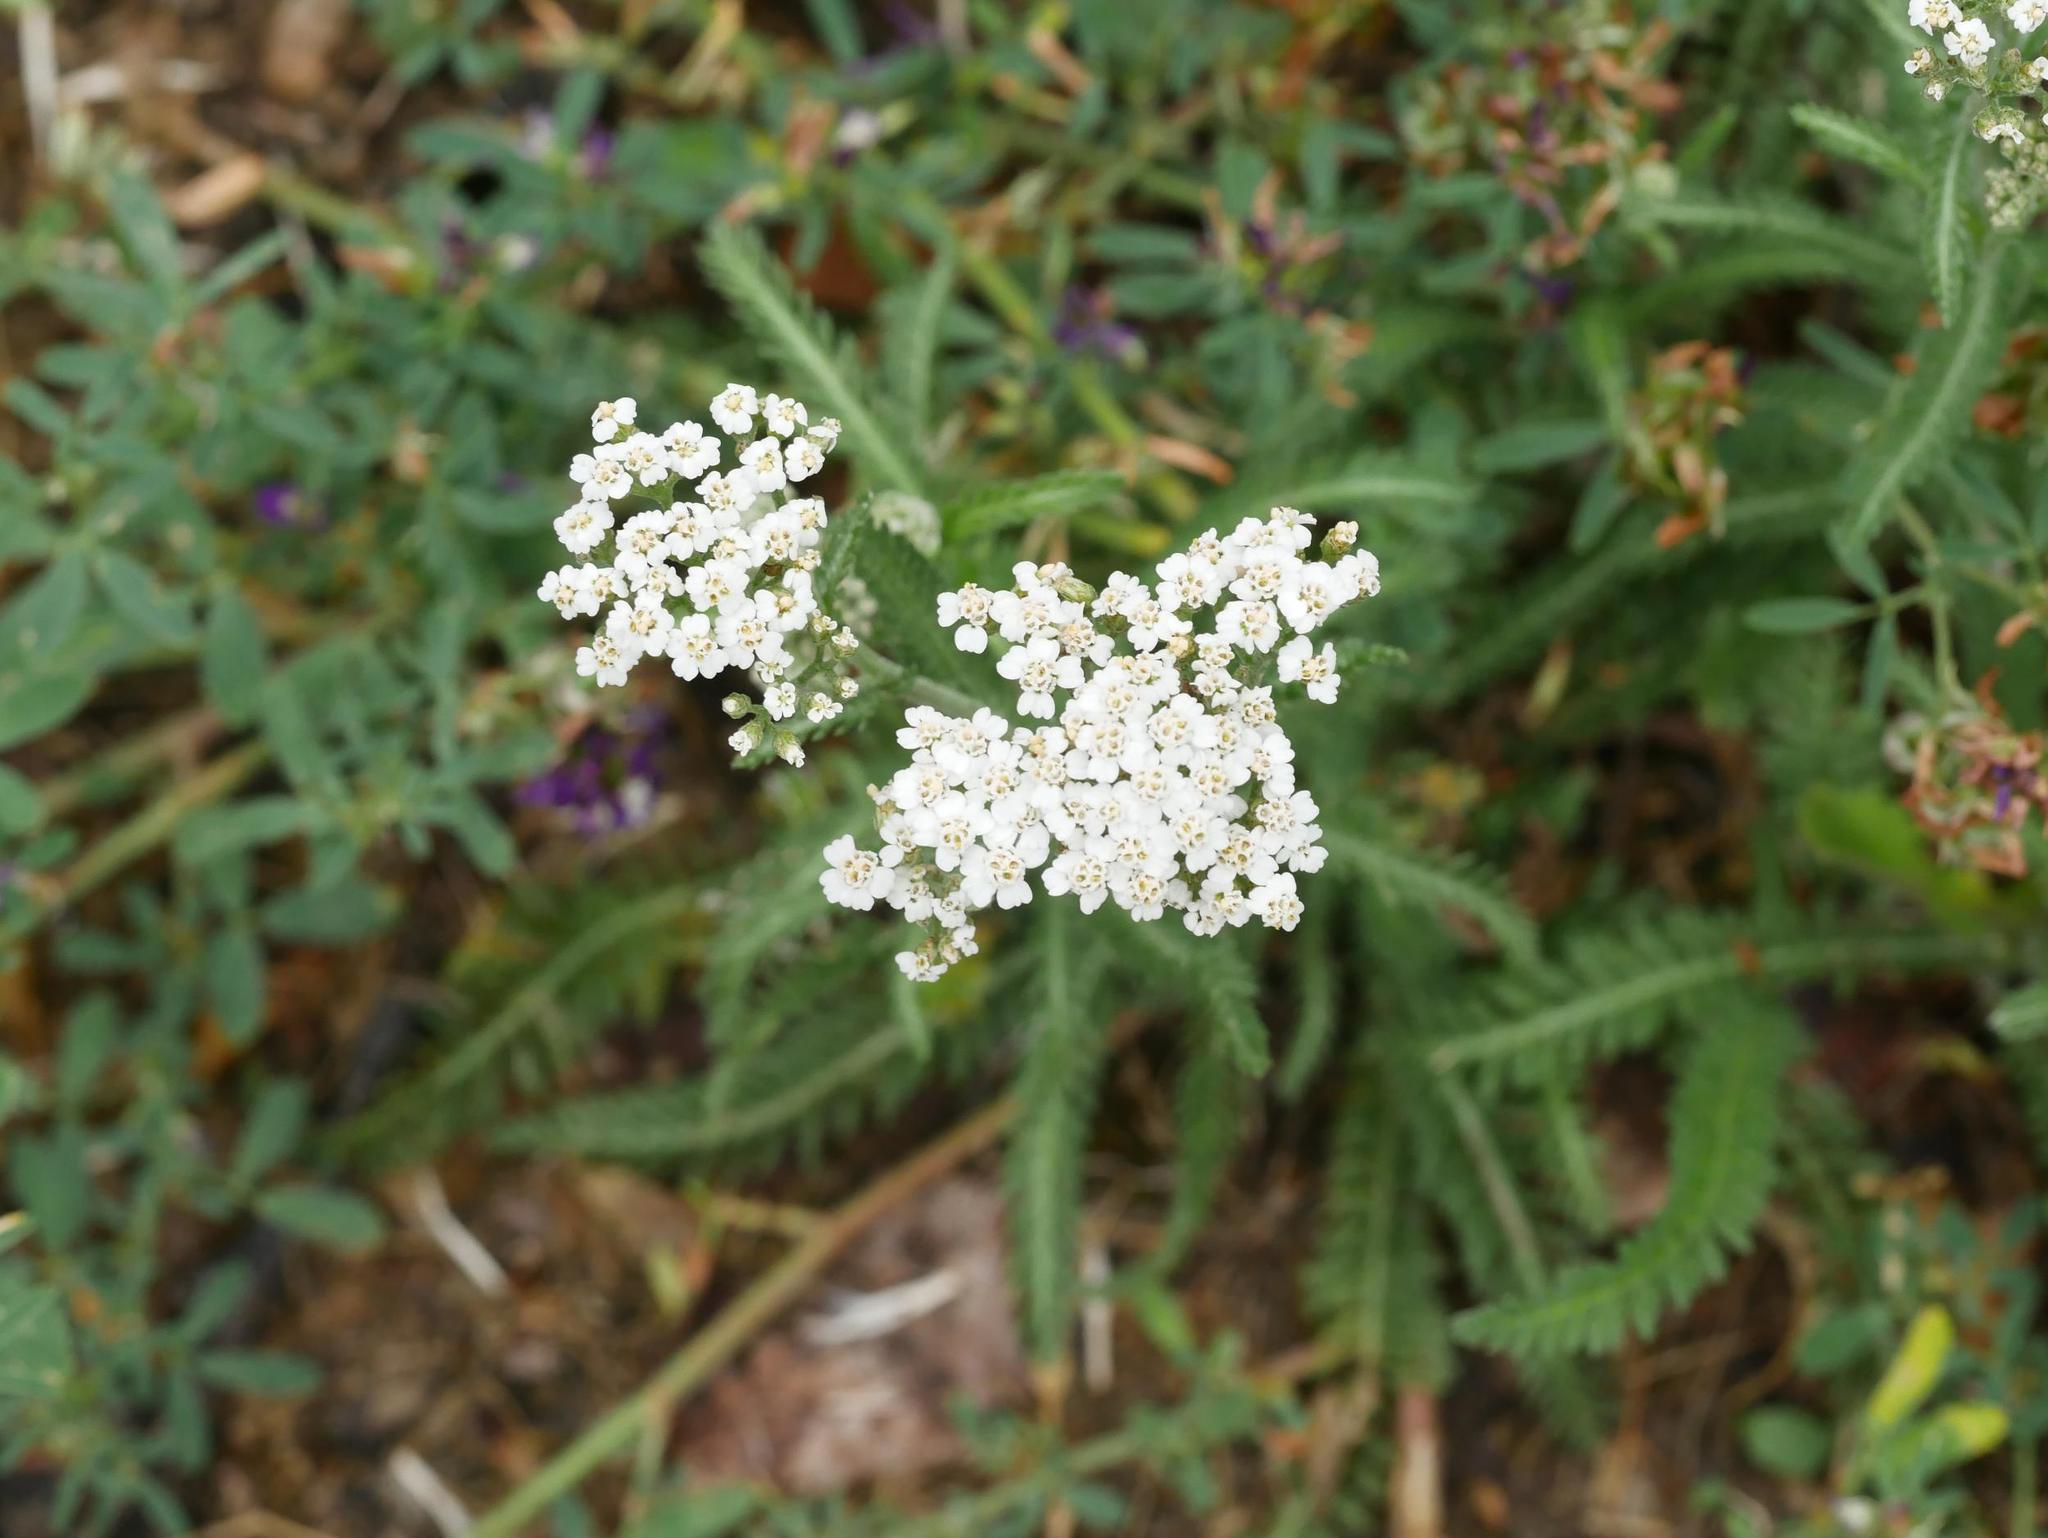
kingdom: Plantae
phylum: Tracheophyta
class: Magnoliopsida
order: Asterales
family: Asteraceae
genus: Achillea
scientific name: Achillea millefolium
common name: Yarrow
